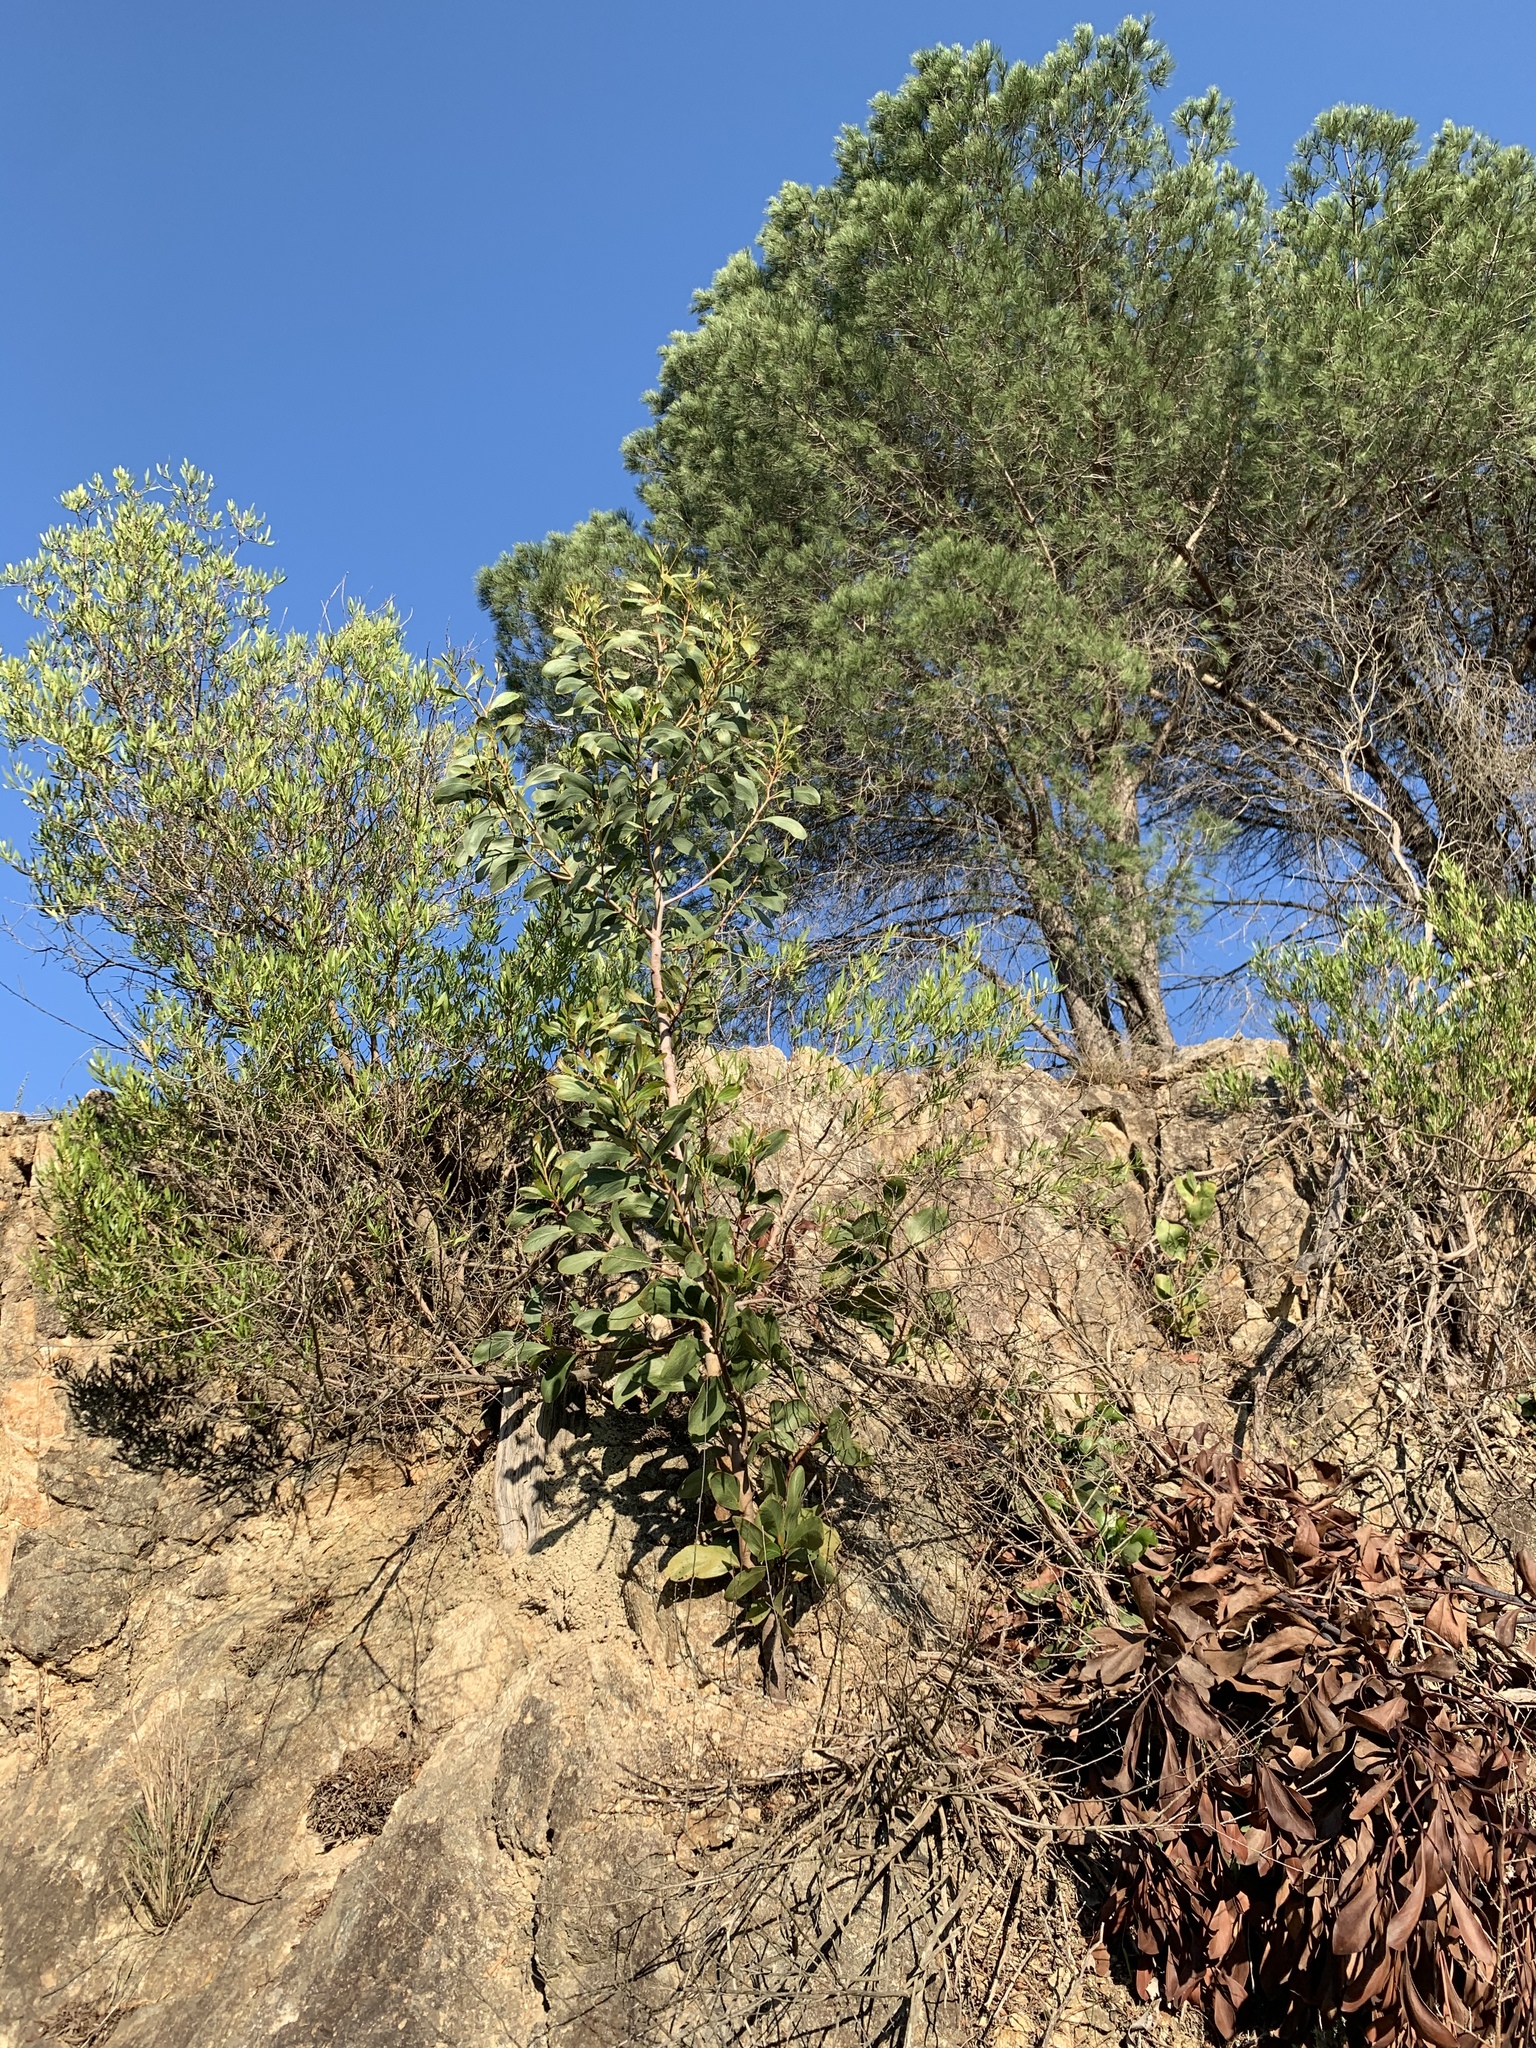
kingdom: Plantae
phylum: Tracheophyta
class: Magnoliopsida
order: Fabales
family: Fabaceae
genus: Acacia
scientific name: Acacia pycnantha
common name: Golden wattle
